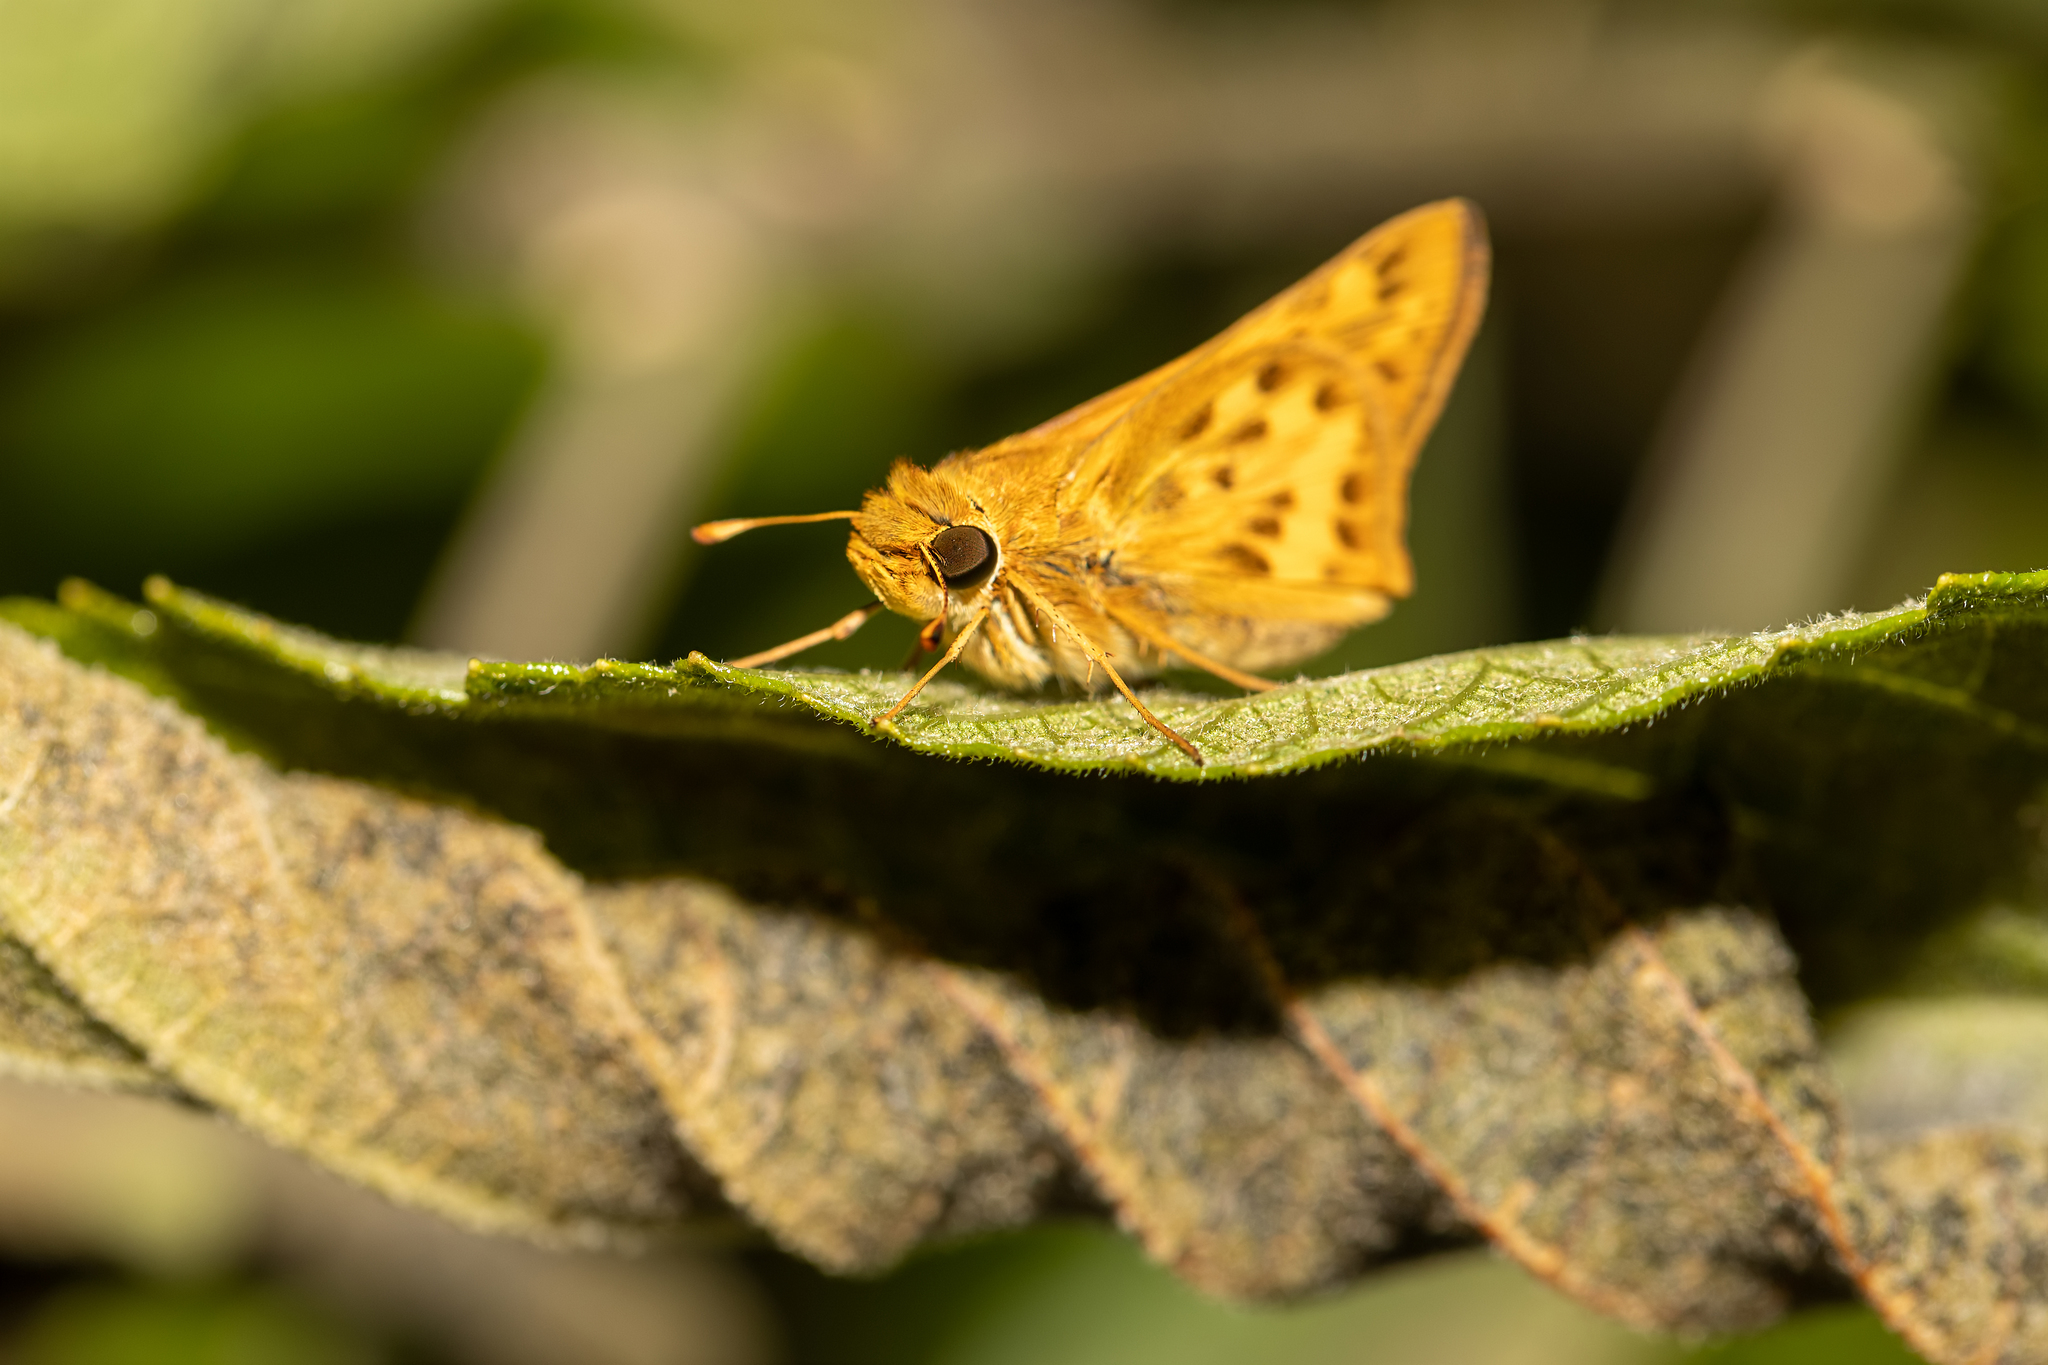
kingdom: Animalia
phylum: Arthropoda
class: Insecta
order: Lepidoptera
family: Hesperiidae
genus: Hylephila
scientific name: Hylephila phyleus
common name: Fiery skipper
